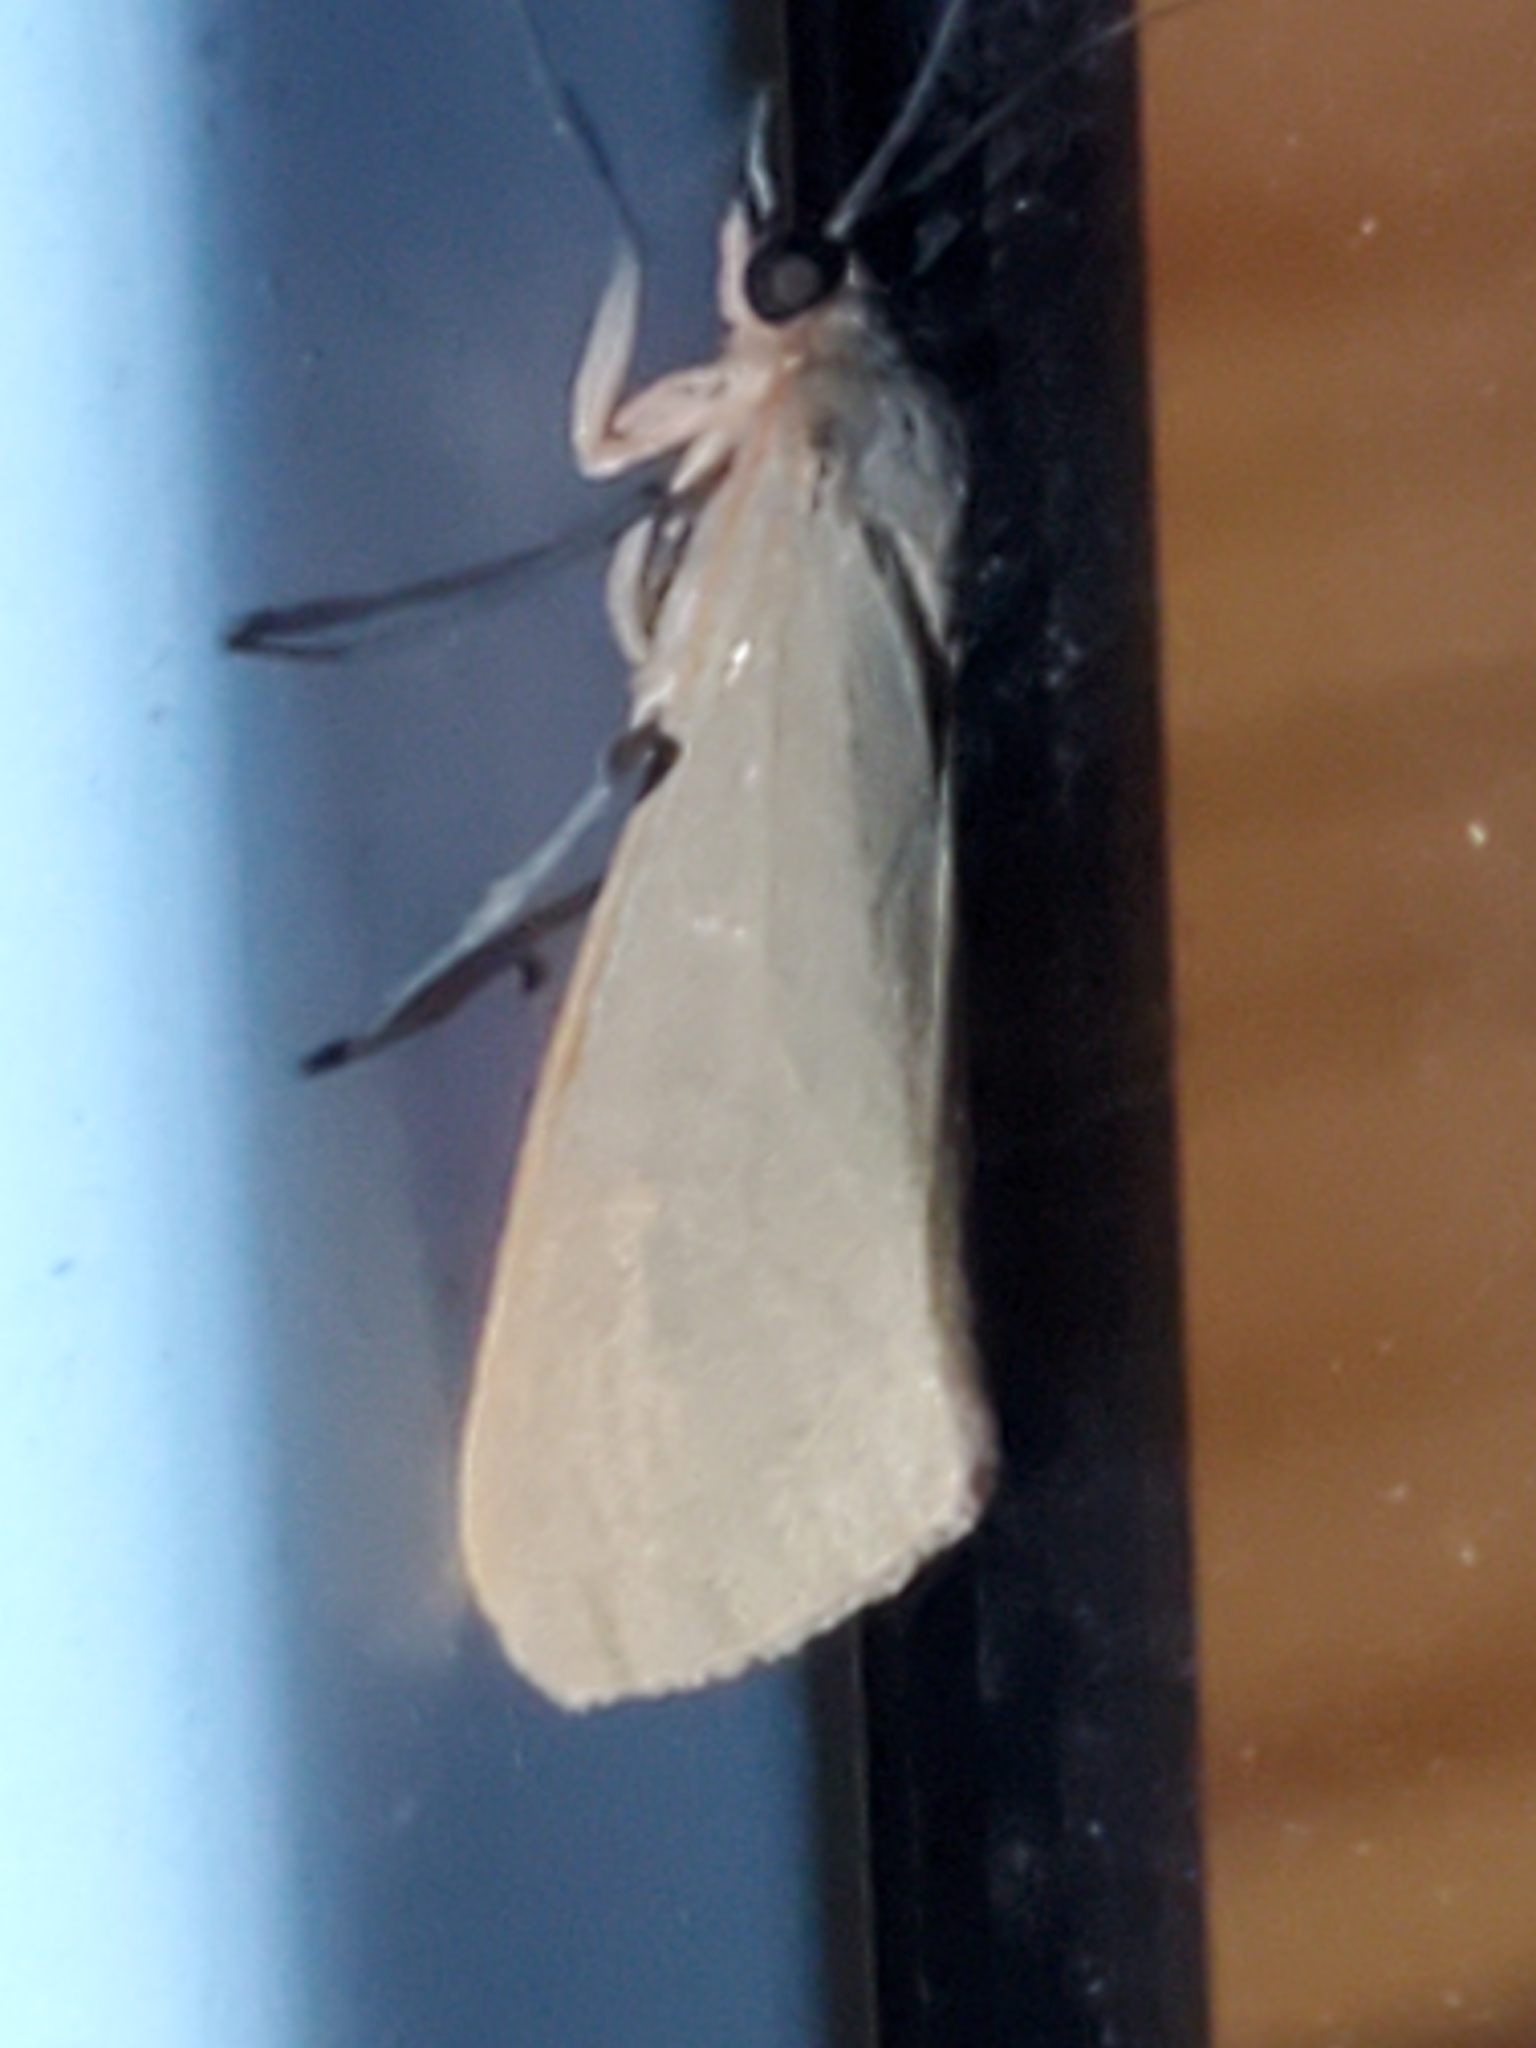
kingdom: Animalia
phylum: Arthropoda
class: Insecta
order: Lepidoptera
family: Erebidae
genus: Virbia
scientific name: Virbia costata
